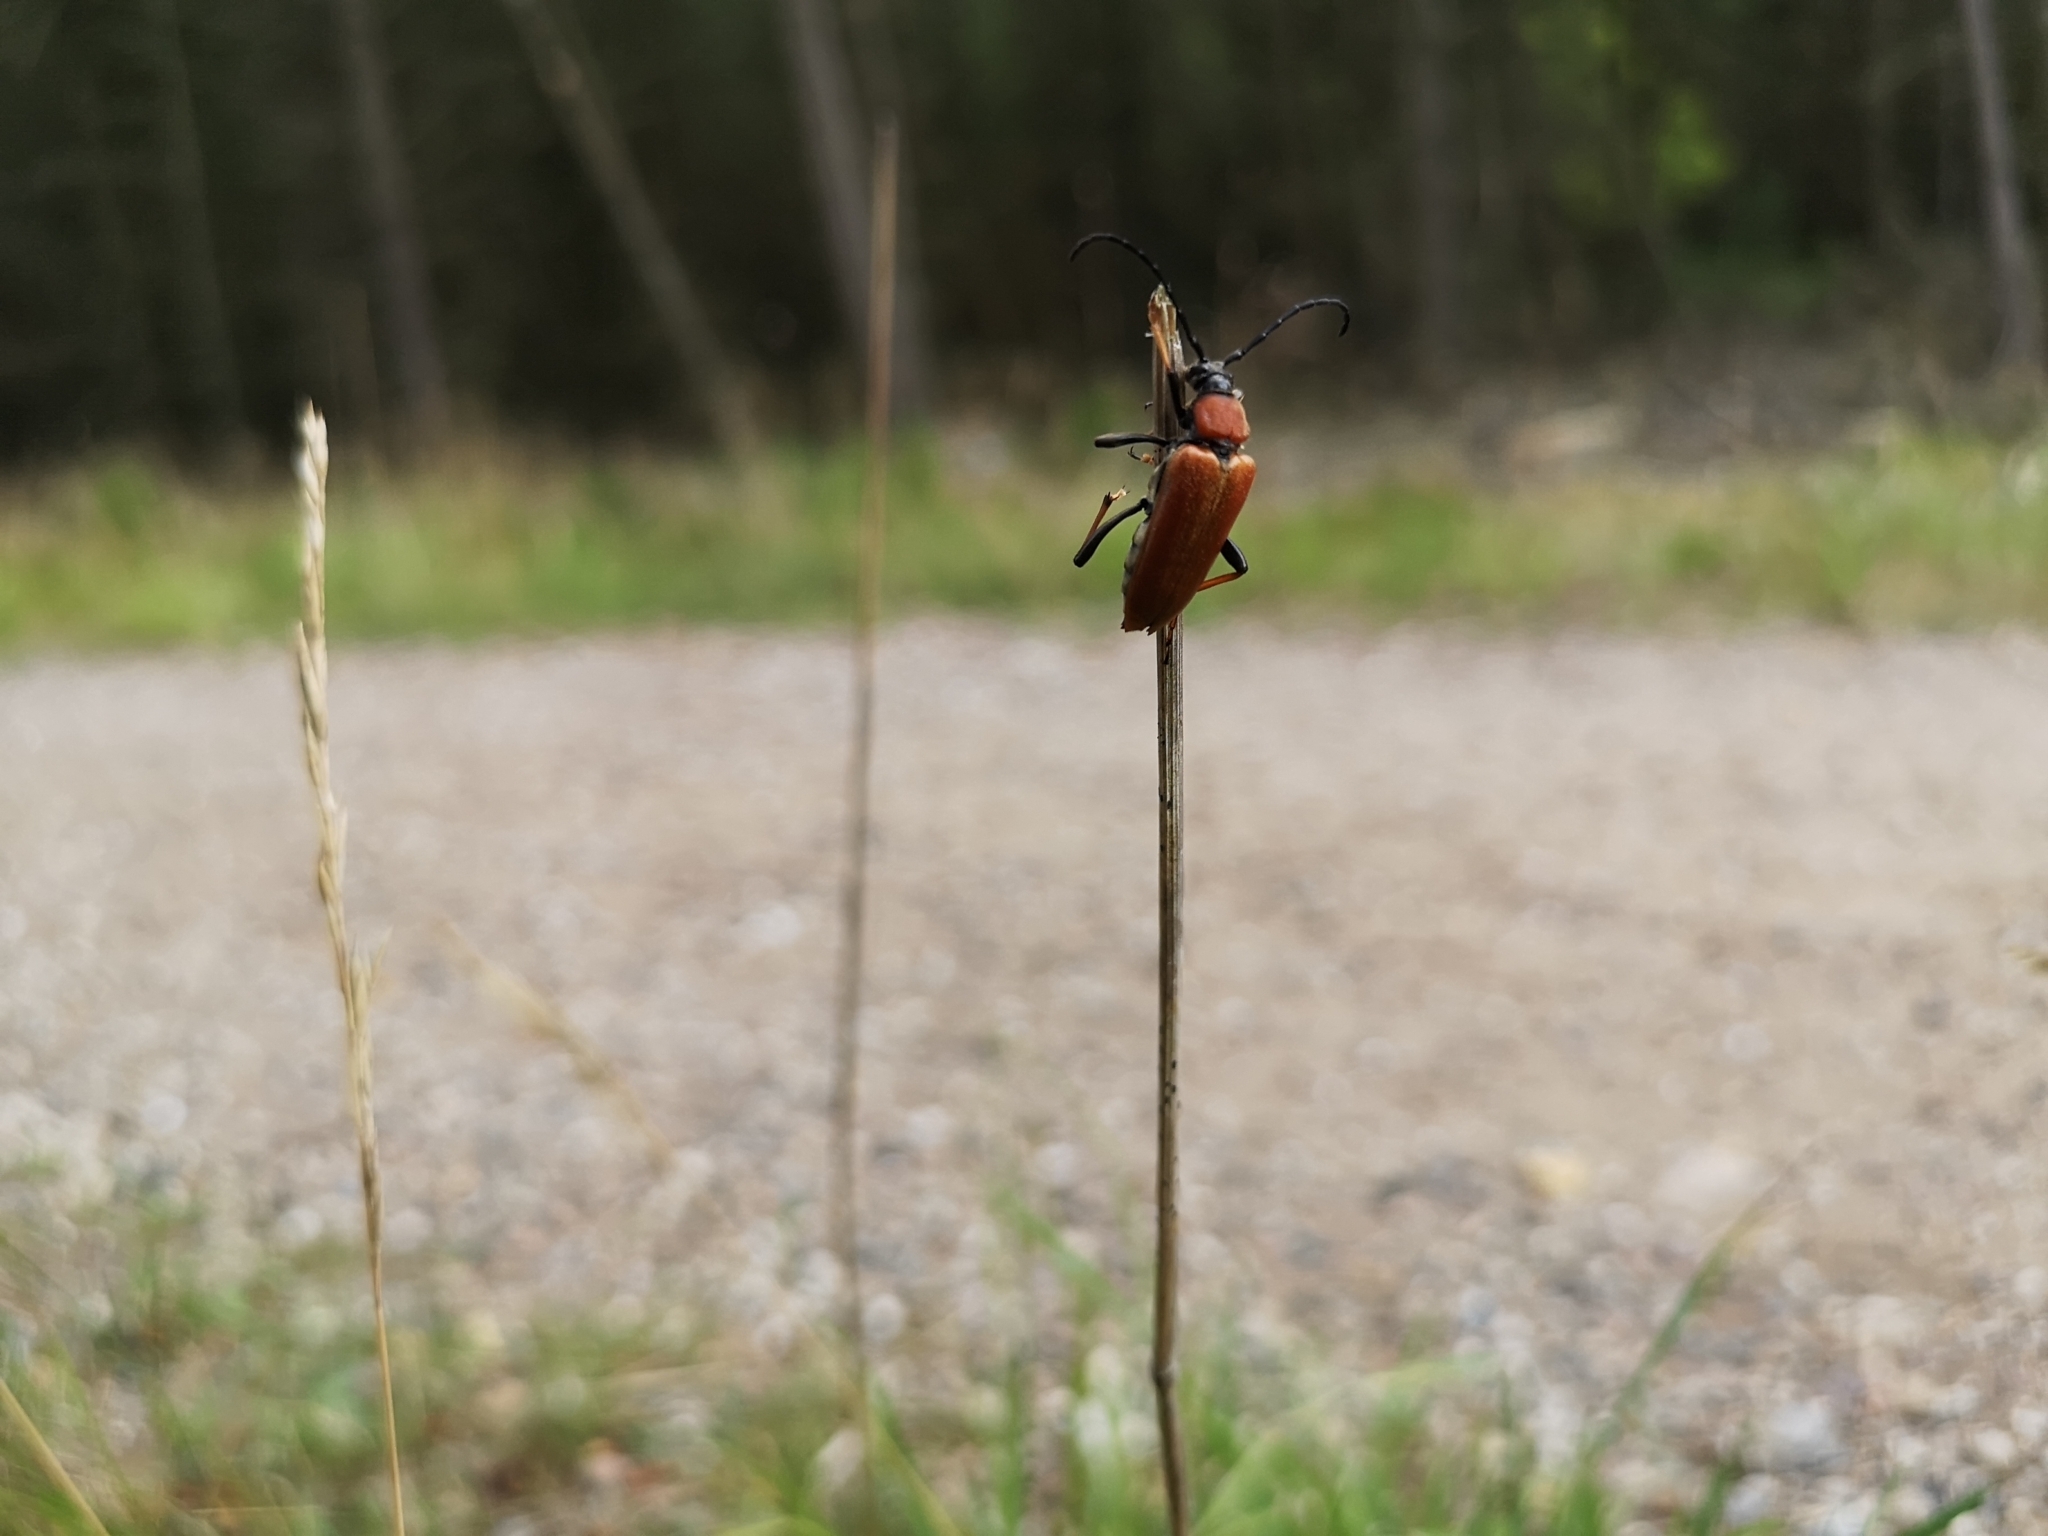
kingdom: Animalia
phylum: Arthropoda
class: Insecta
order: Coleoptera
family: Cerambycidae
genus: Stictoleptura
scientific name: Stictoleptura rubra
